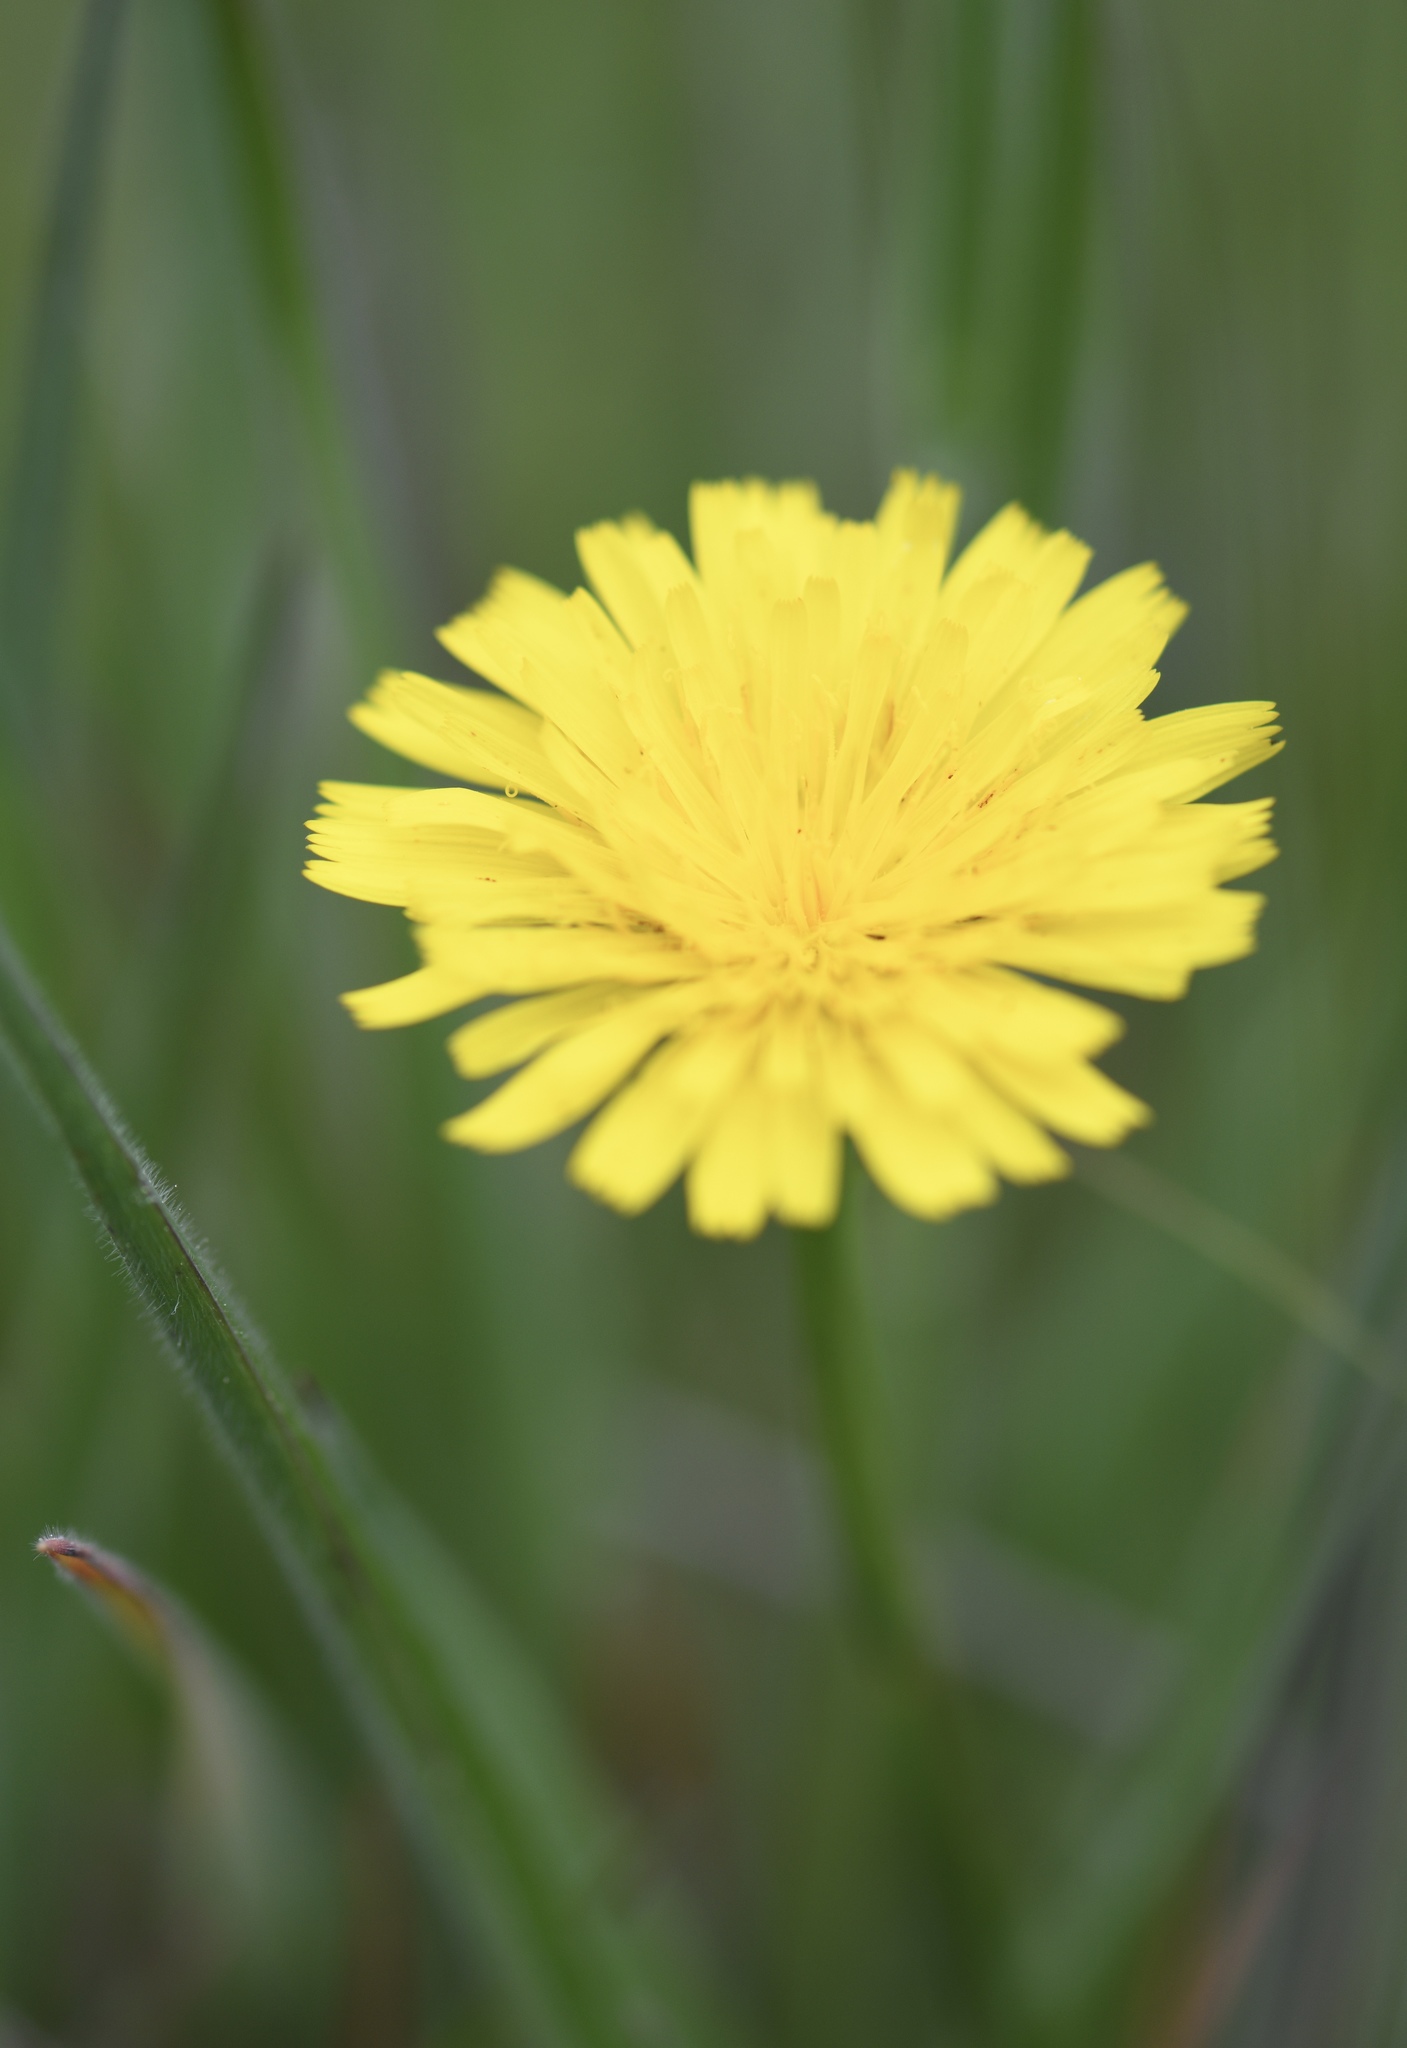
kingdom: Plantae
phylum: Tracheophyta
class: Magnoliopsida
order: Asterales
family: Asteraceae
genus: Hypochaeris
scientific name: Hypochaeris radicata
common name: Flatweed
